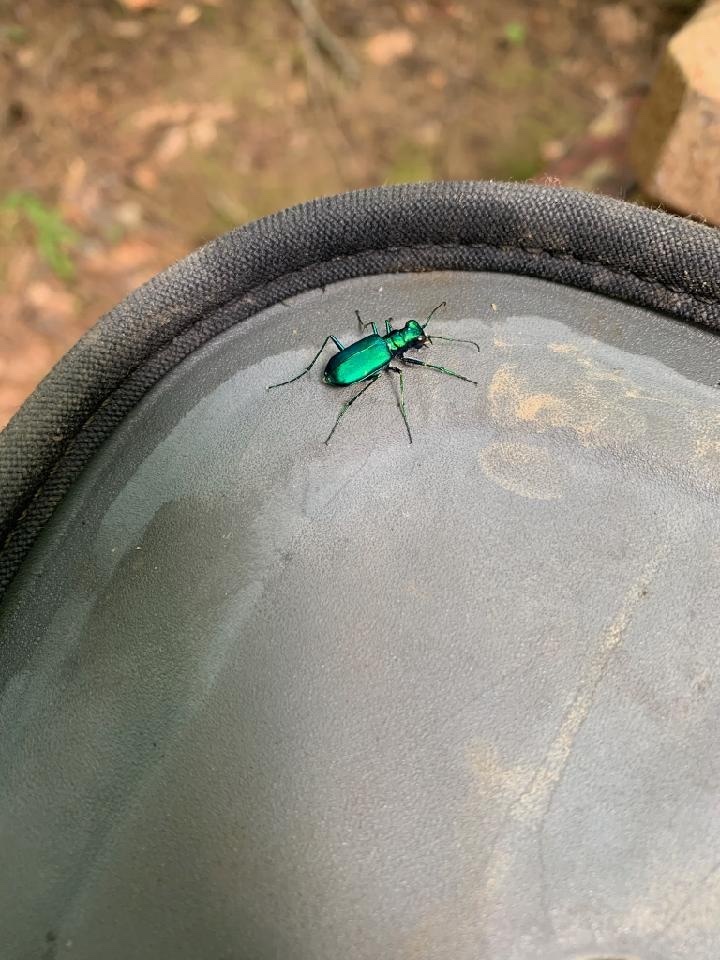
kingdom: Animalia
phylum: Arthropoda
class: Insecta
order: Coleoptera
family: Carabidae
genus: Cicindela
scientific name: Cicindela sexguttata
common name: Six-spotted tiger beetle
